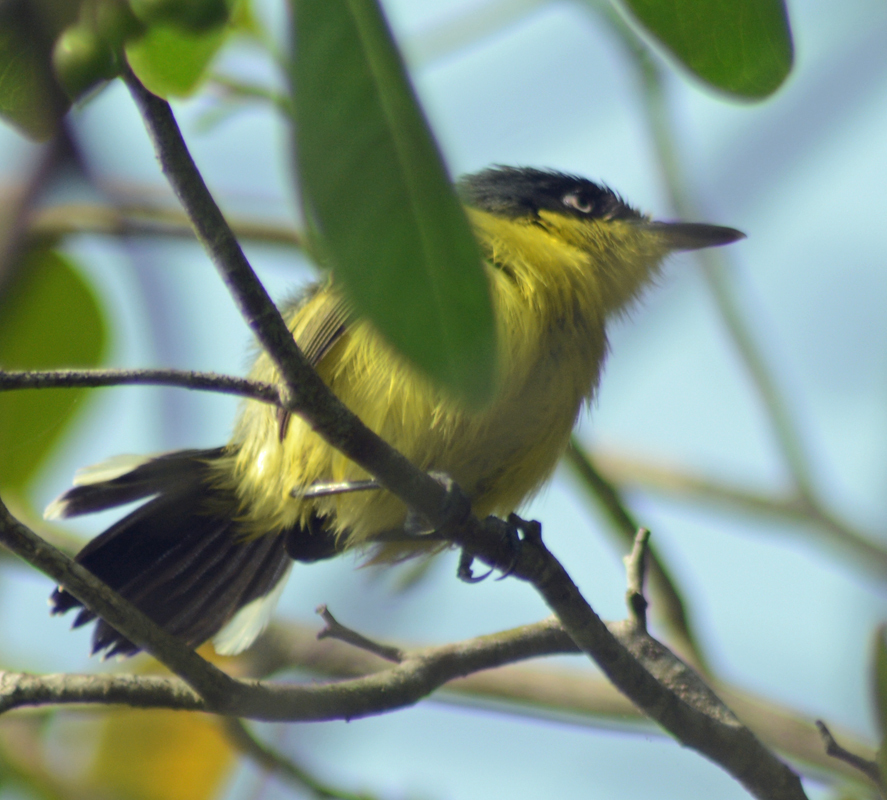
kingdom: Animalia
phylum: Chordata
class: Aves
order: Passeriformes
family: Tyrannidae
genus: Todirostrum
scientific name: Todirostrum cinereum
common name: Common tody-flycatcher
